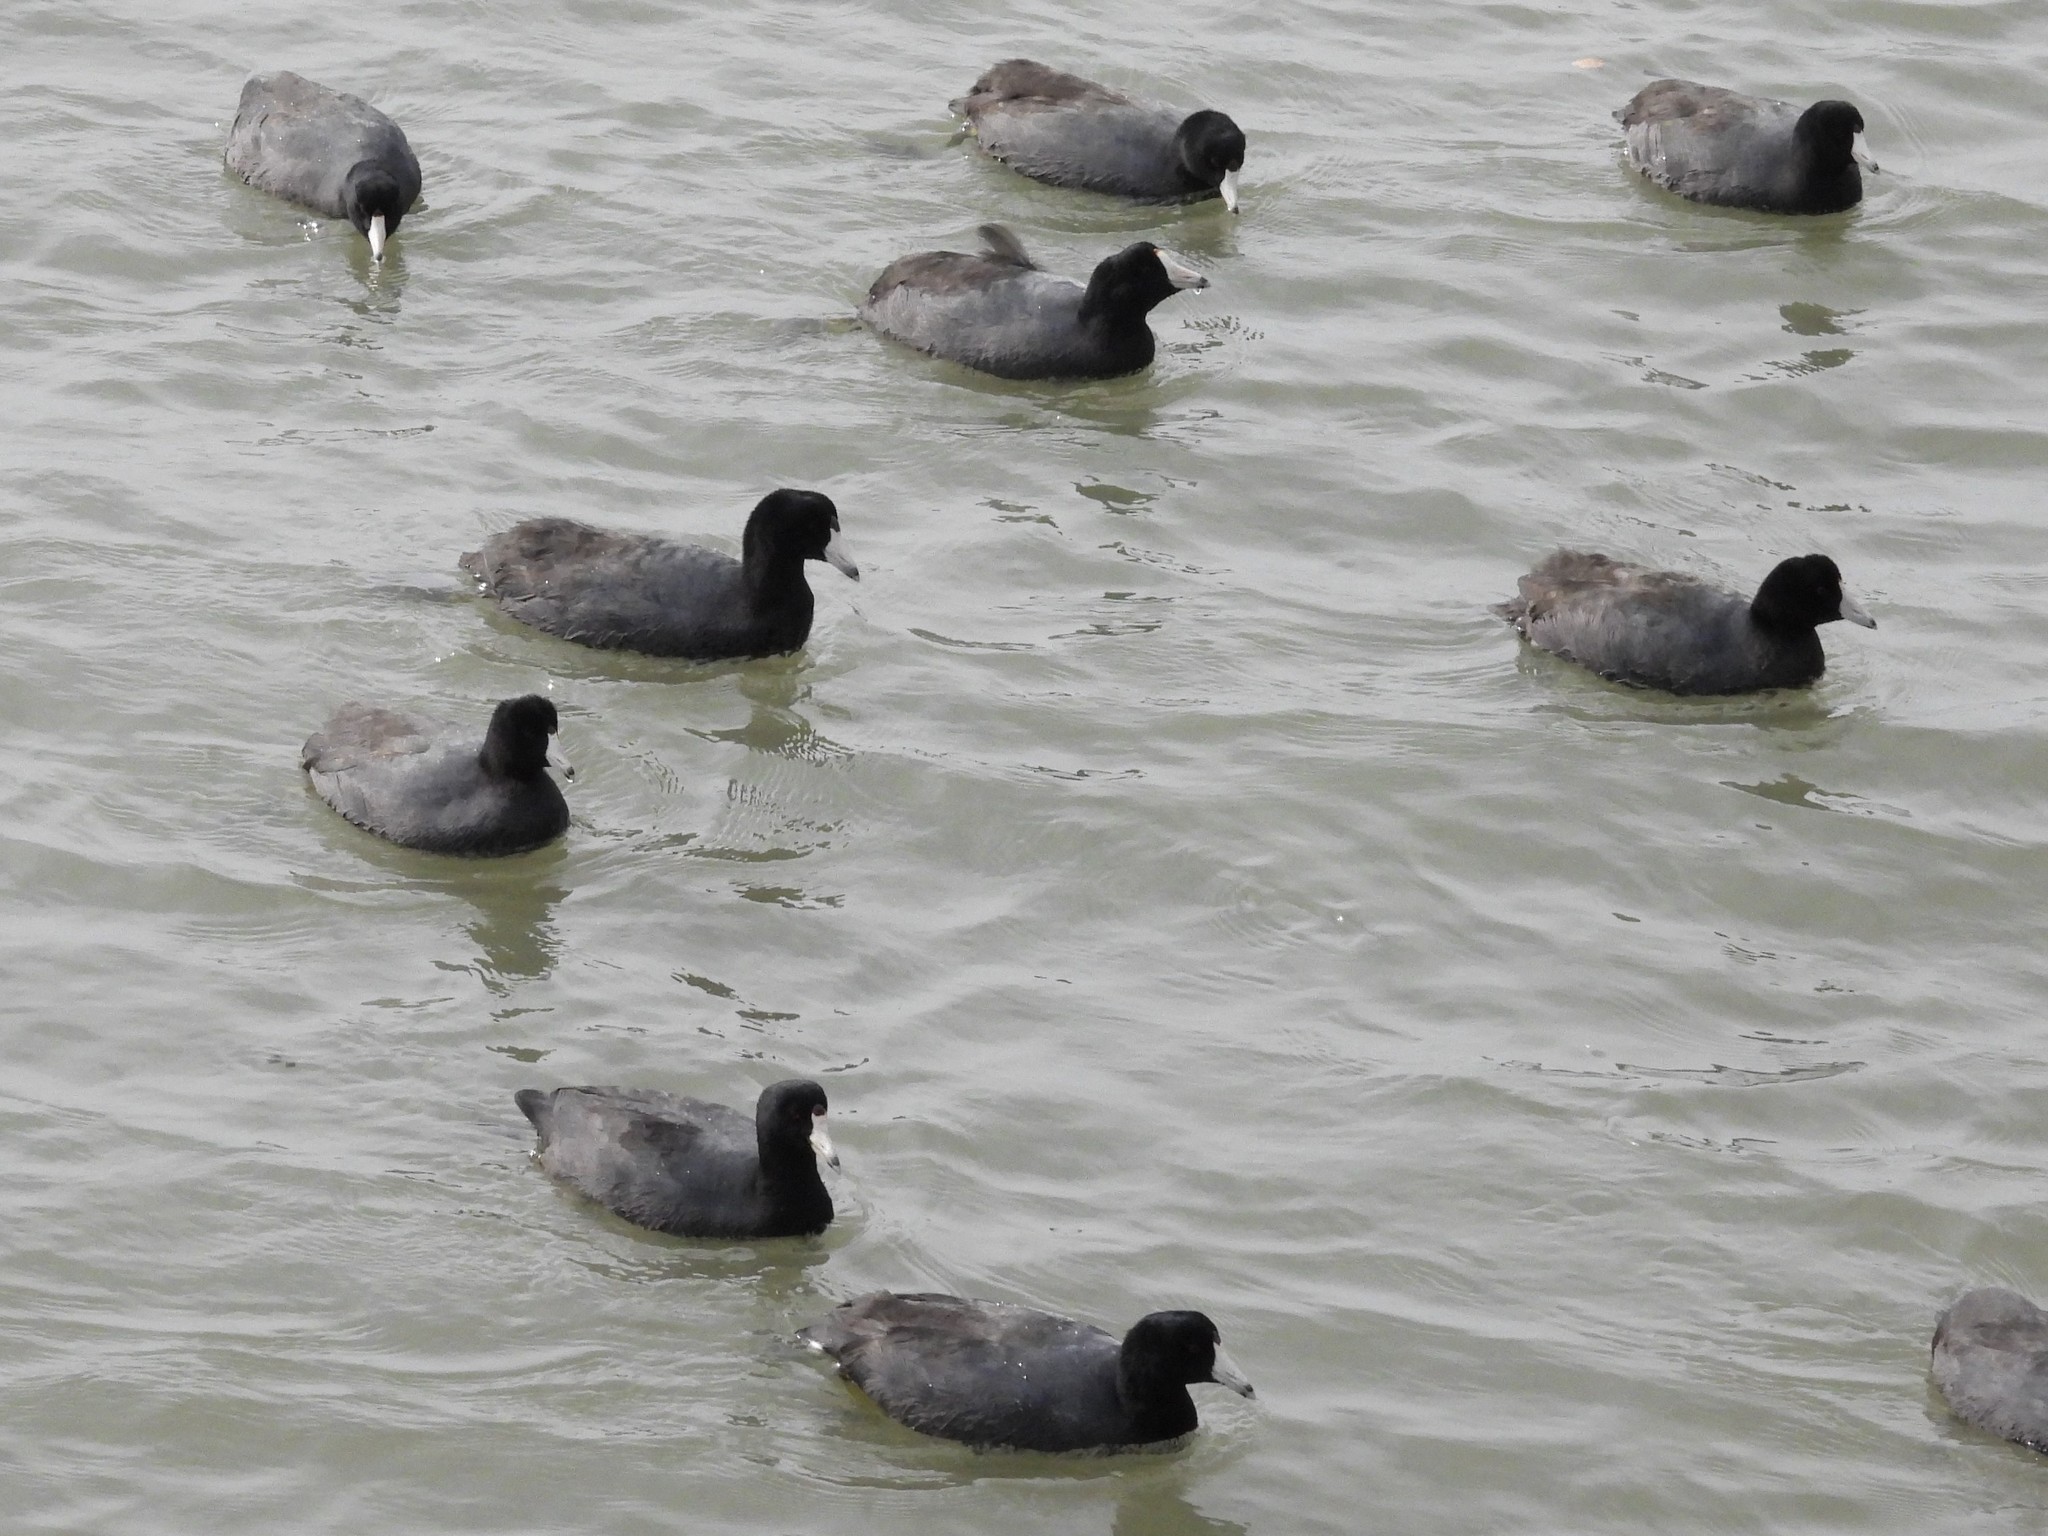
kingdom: Animalia
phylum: Chordata
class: Aves
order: Gruiformes
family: Rallidae
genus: Fulica
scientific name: Fulica americana
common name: American coot
